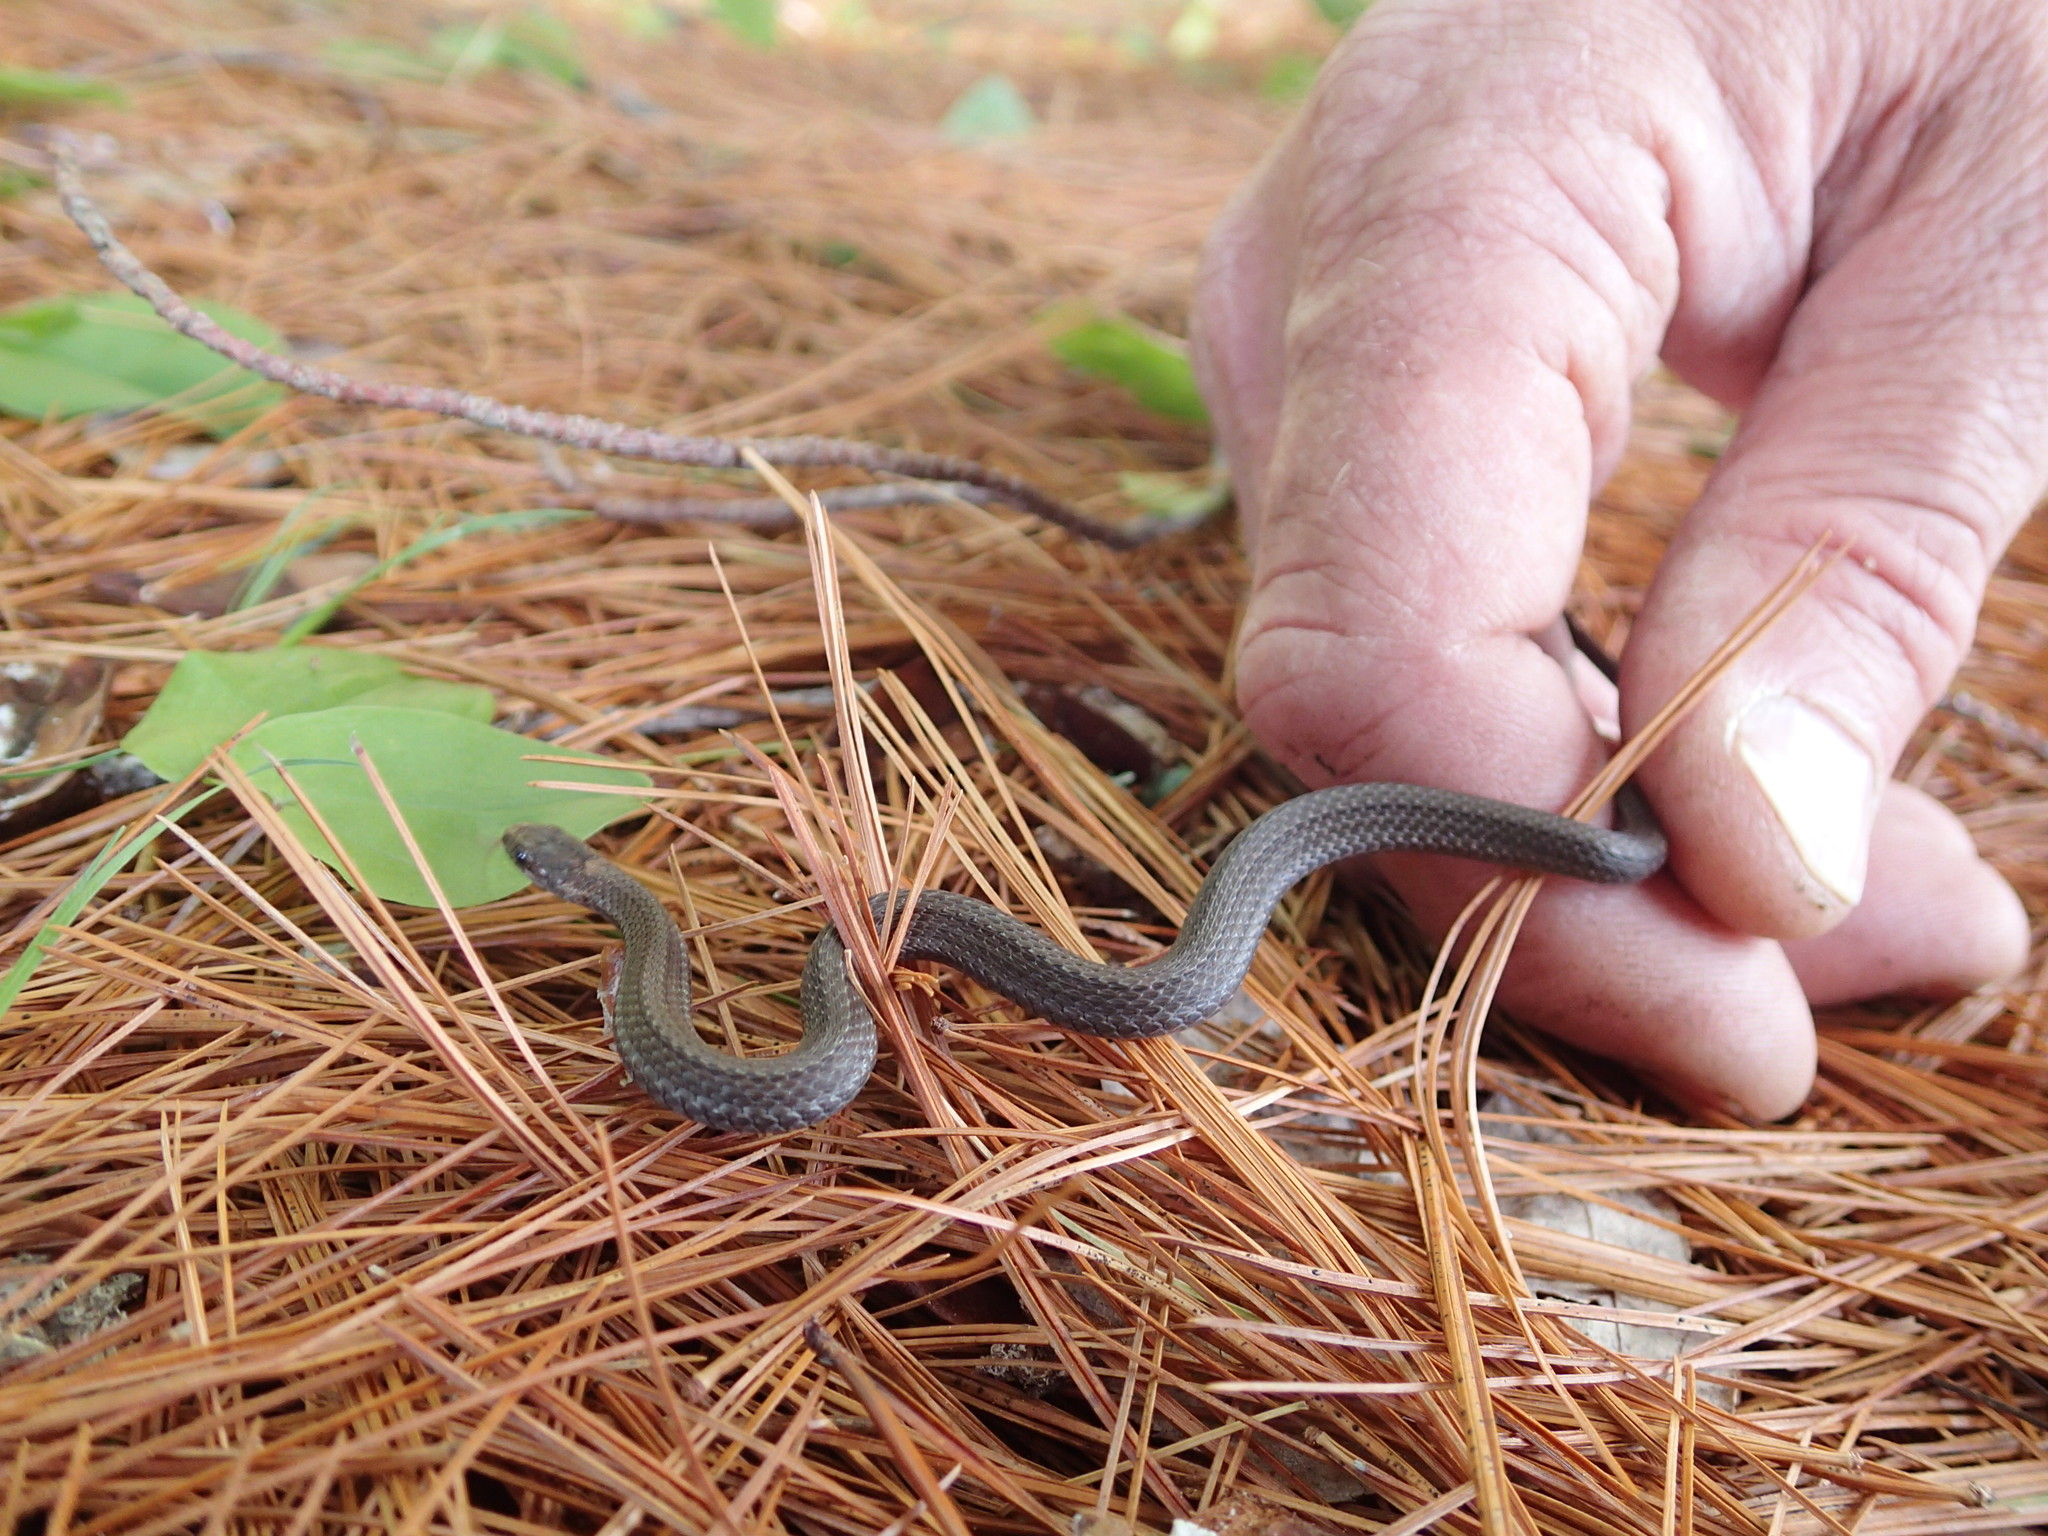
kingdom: Animalia
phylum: Chordata
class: Squamata
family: Colubridae
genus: Storeria
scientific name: Storeria occipitomaculata
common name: Redbelly snake
